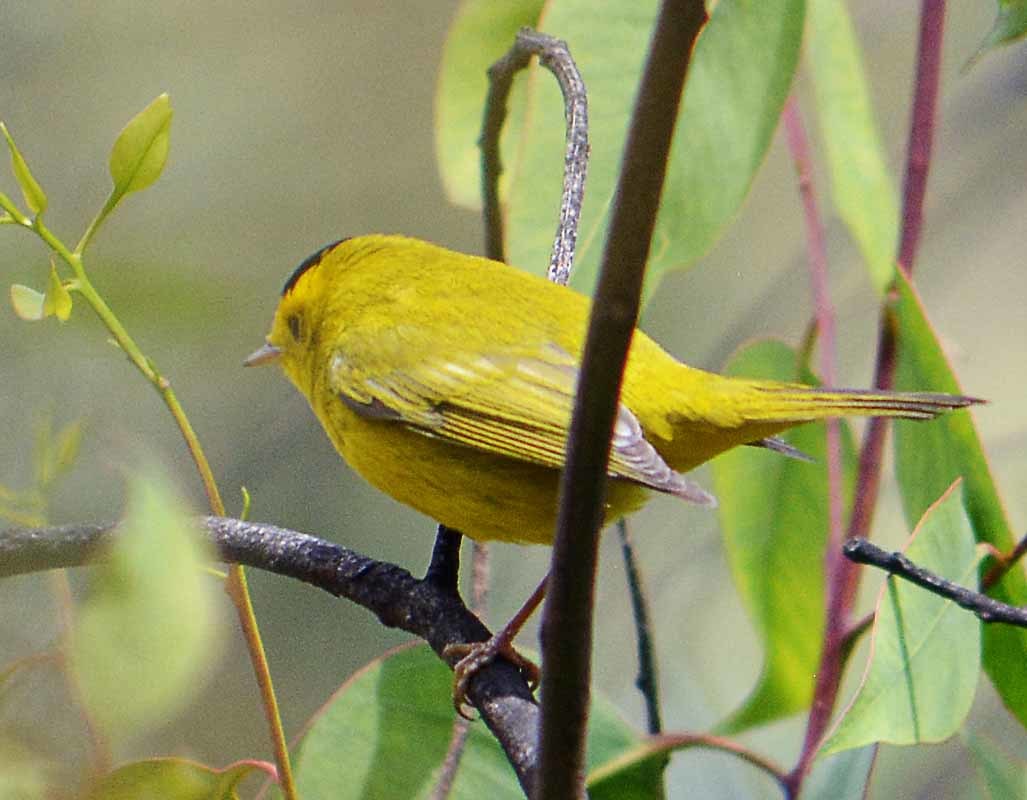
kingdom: Animalia
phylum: Chordata
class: Aves
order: Passeriformes
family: Parulidae
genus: Cardellina
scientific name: Cardellina pusilla
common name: Wilson's warbler
